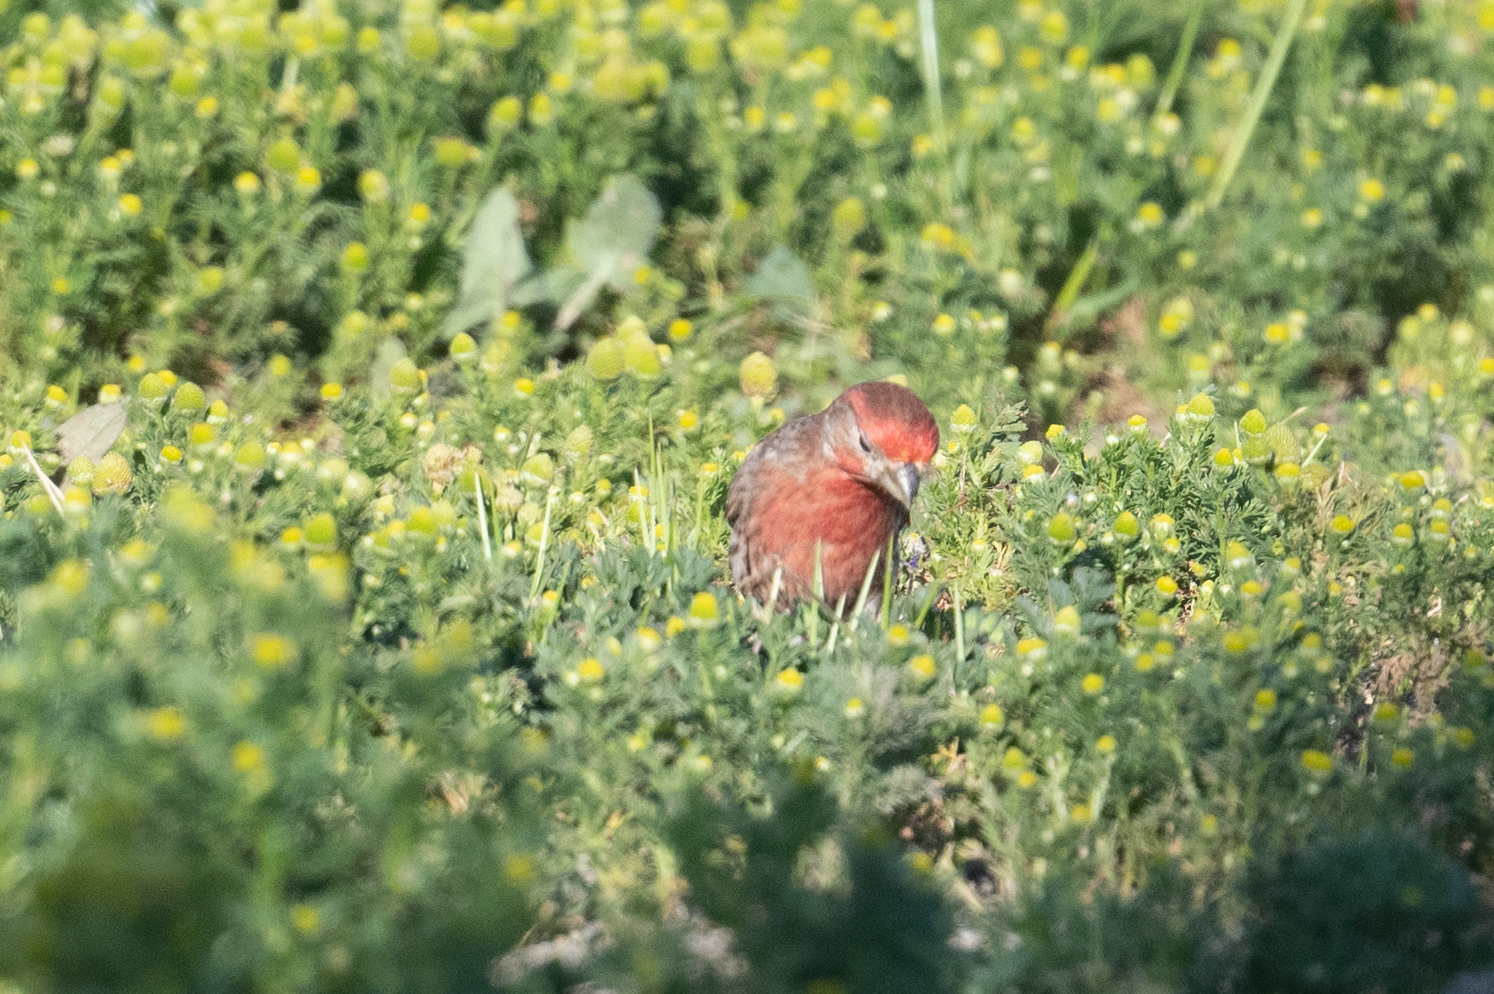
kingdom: Animalia
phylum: Chordata
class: Aves
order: Passeriformes
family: Fringillidae
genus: Haemorhous
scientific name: Haemorhous mexicanus
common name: House finch
